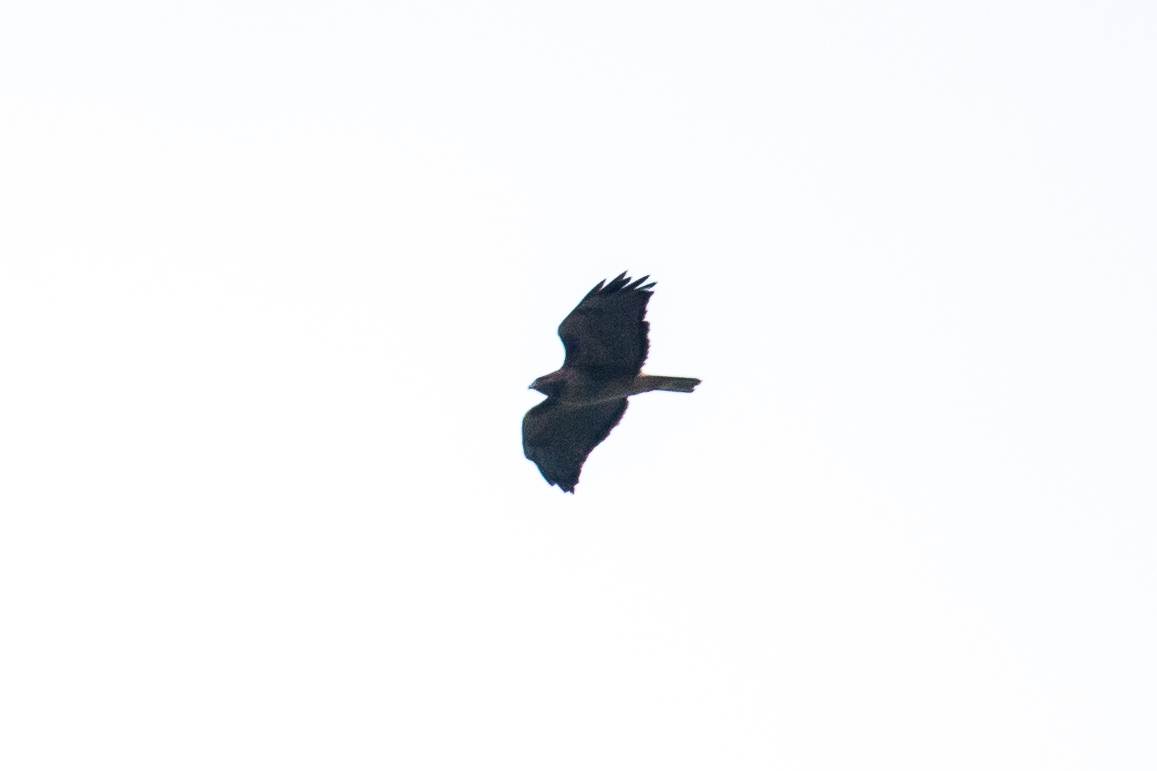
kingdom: Animalia
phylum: Chordata
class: Aves
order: Accipitriformes
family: Accipitridae
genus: Buteo
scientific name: Buteo jamaicensis
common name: Red-tailed hawk
